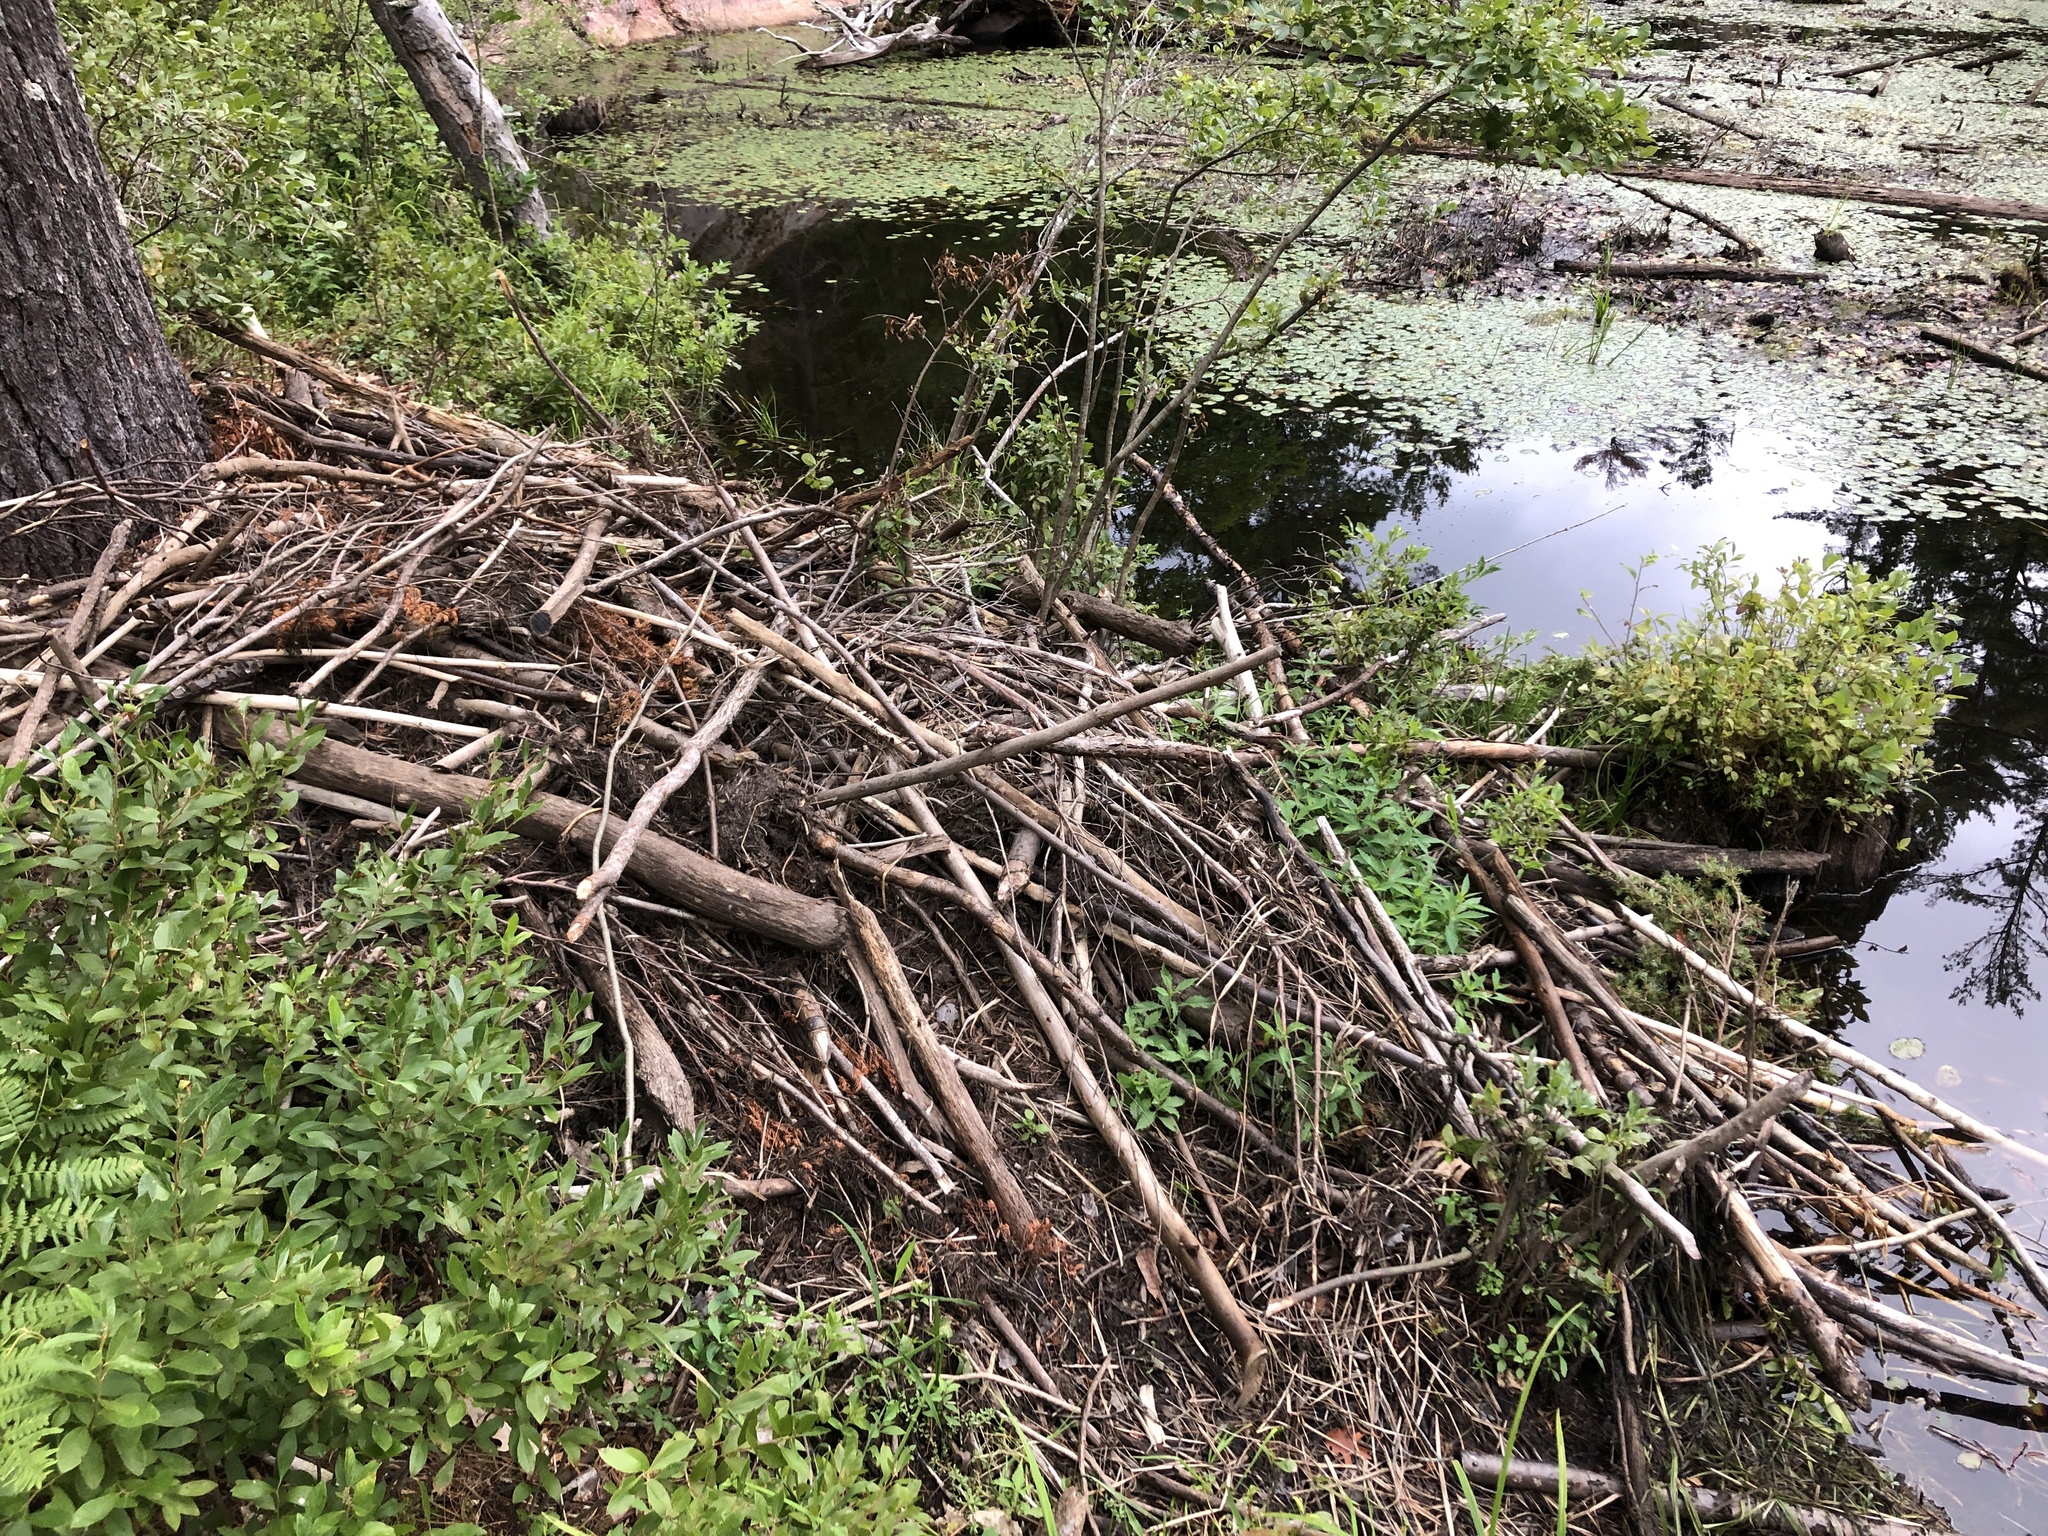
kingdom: Animalia
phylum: Chordata
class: Mammalia
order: Rodentia
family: Castoridae
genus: Castor
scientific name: Castor canadensis
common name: American beaver
